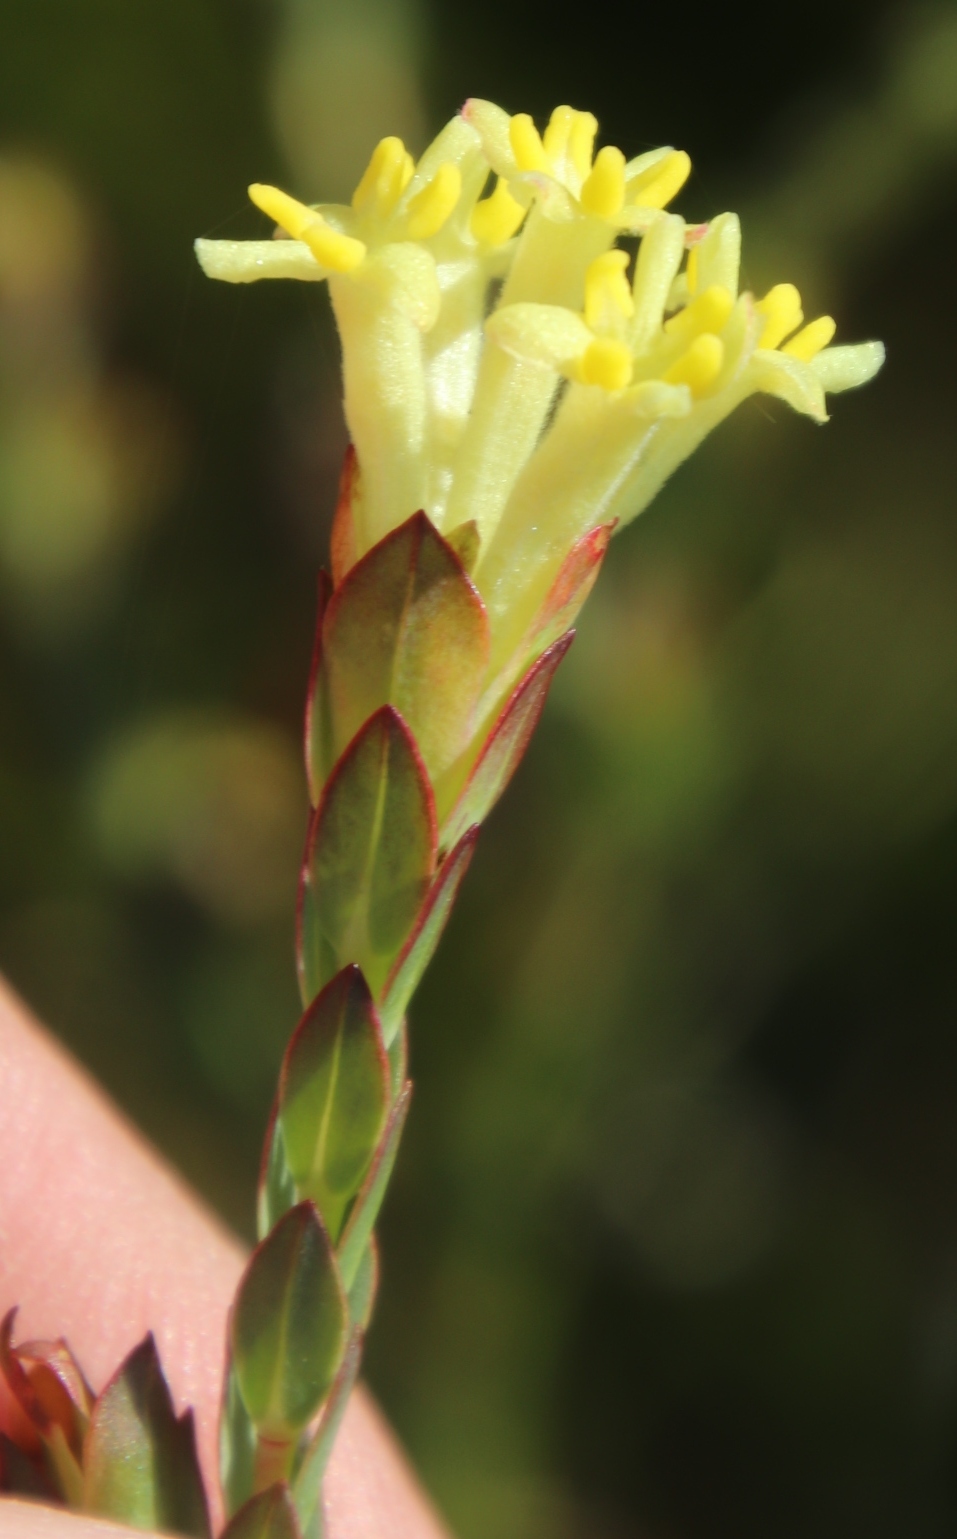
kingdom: Plantae
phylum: Tracheophyta
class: Magnoliopsida
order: Malvales
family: Thymelaeaceae
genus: Gnidia
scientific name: Gnidia oppositifolia
